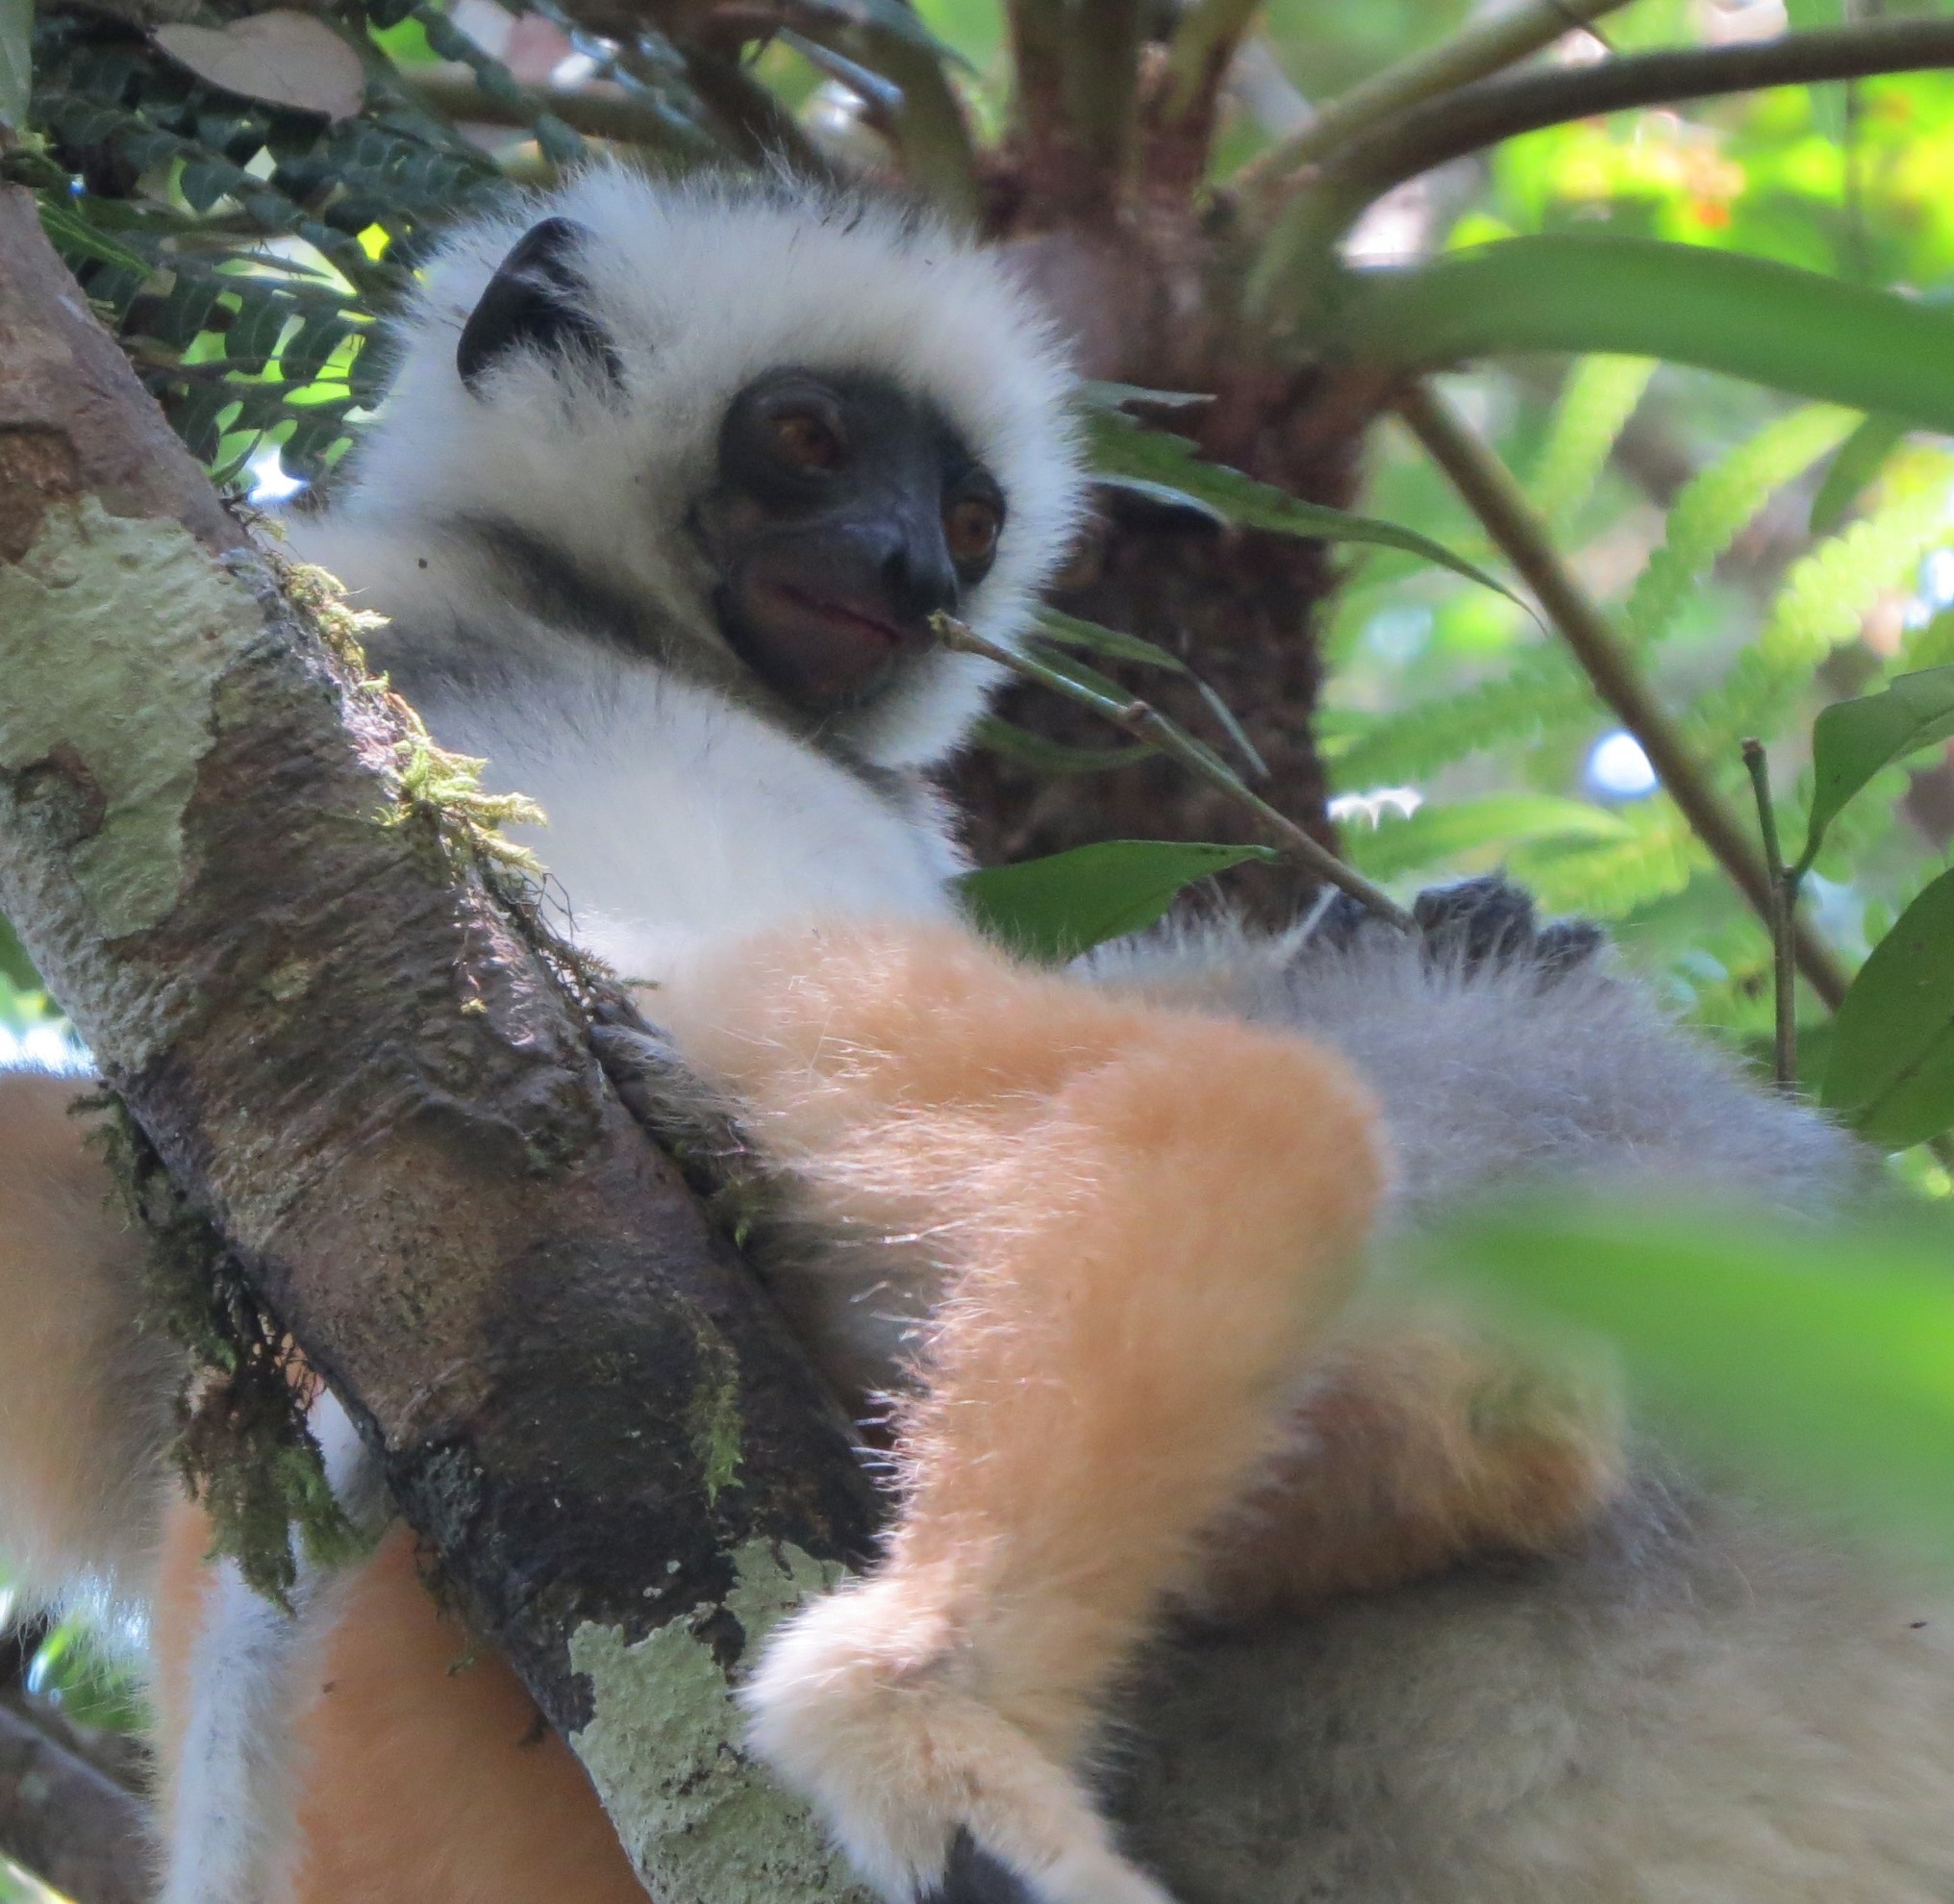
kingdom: Animalia
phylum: Chordata
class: Mammalia
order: Primates
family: Indriidae
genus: Propithecus
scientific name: Propithecus diadema
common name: Diademed sifaka
